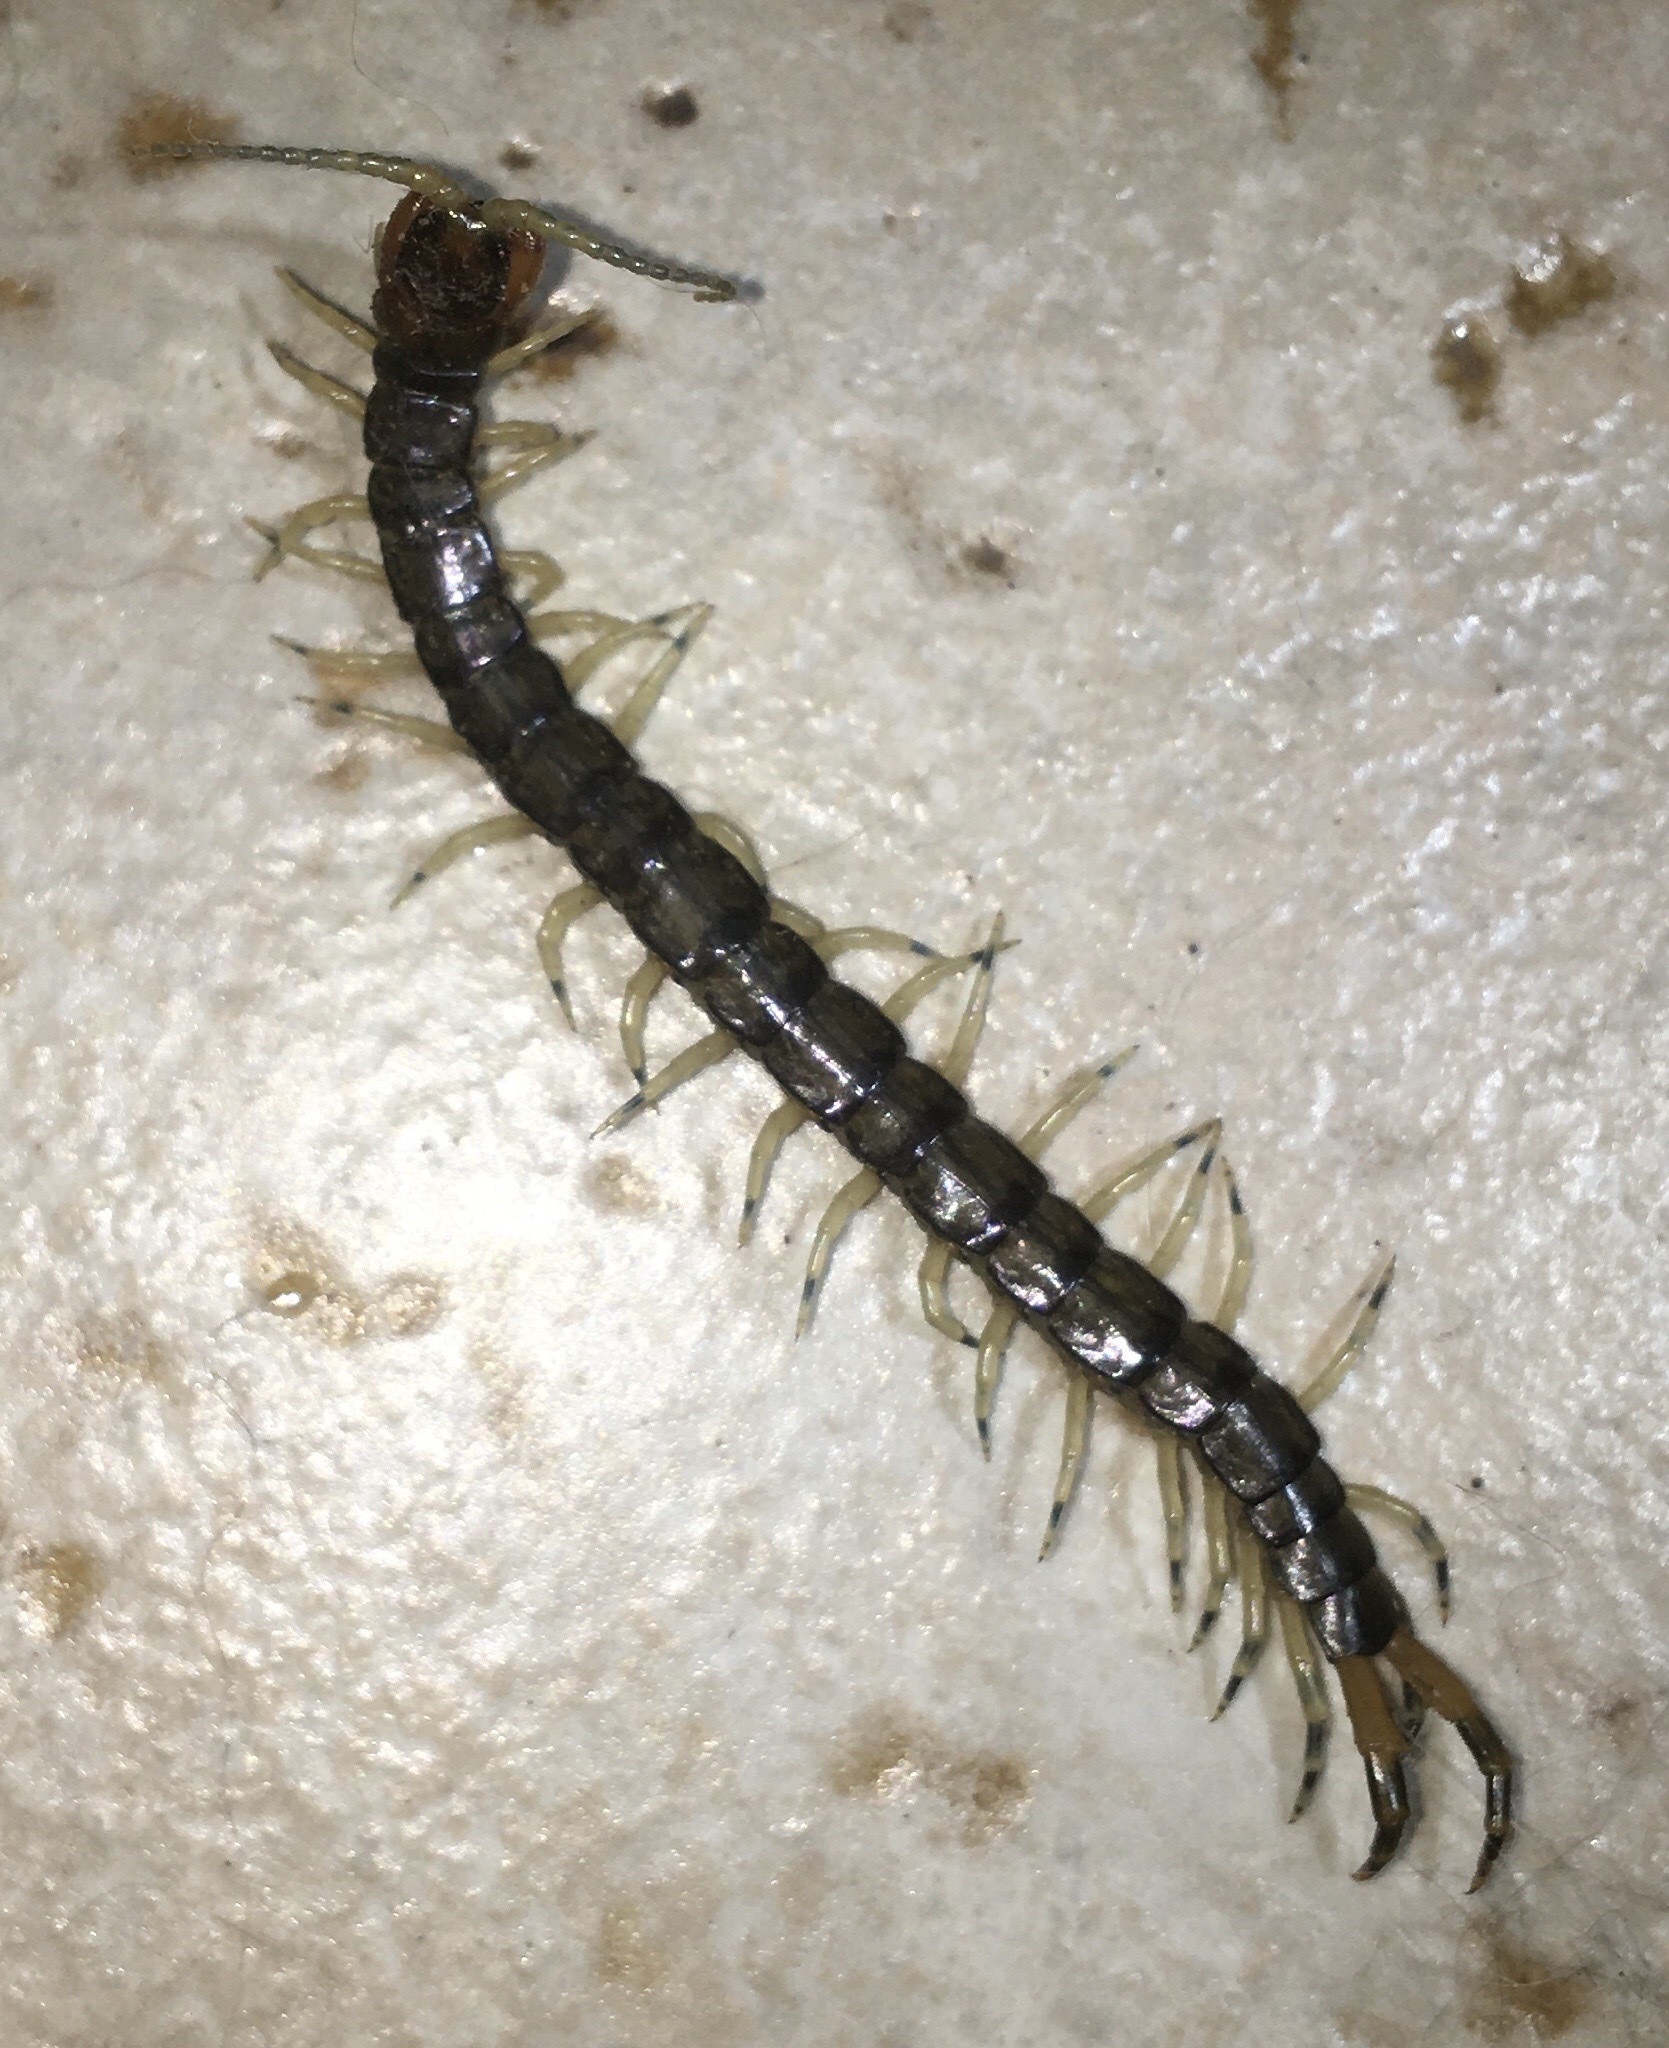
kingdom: Animalia
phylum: Arthropoda
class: Chilopoda
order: Scolopendromorpha
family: Scolopendridae
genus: Hemiscolopendra
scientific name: Hemiscolopendra marginata
